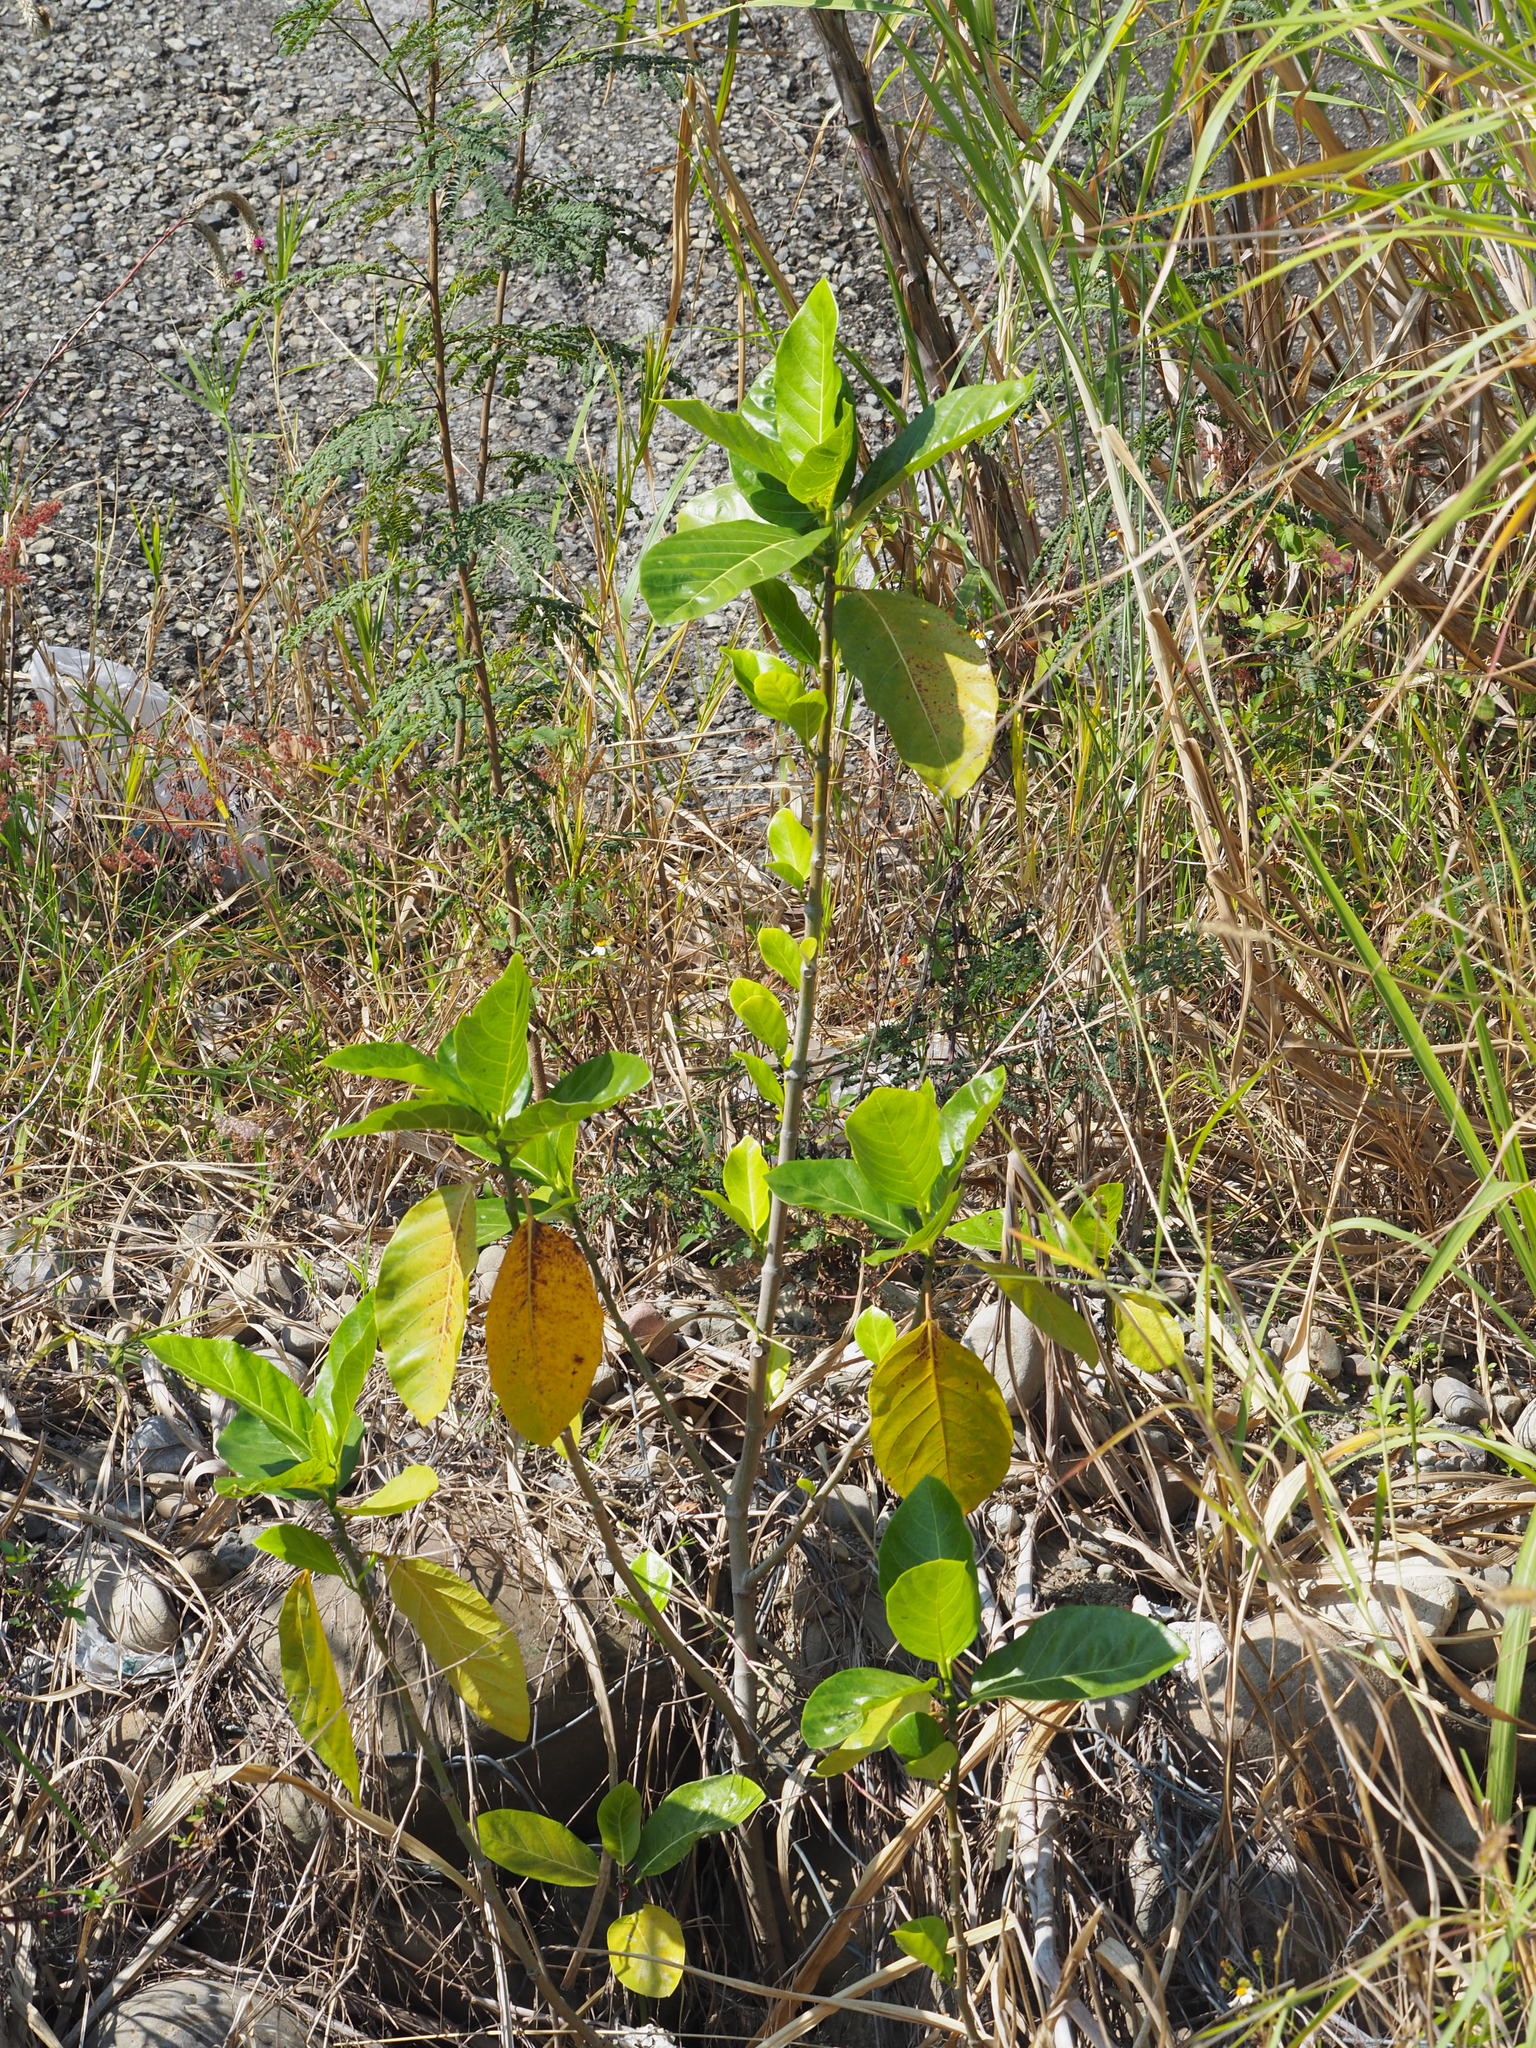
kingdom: Plantae
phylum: Tracheophyta
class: Magnoliopsida
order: Rosales
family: Moraceae
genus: Ficus
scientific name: Ficus septica
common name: Septic fig
